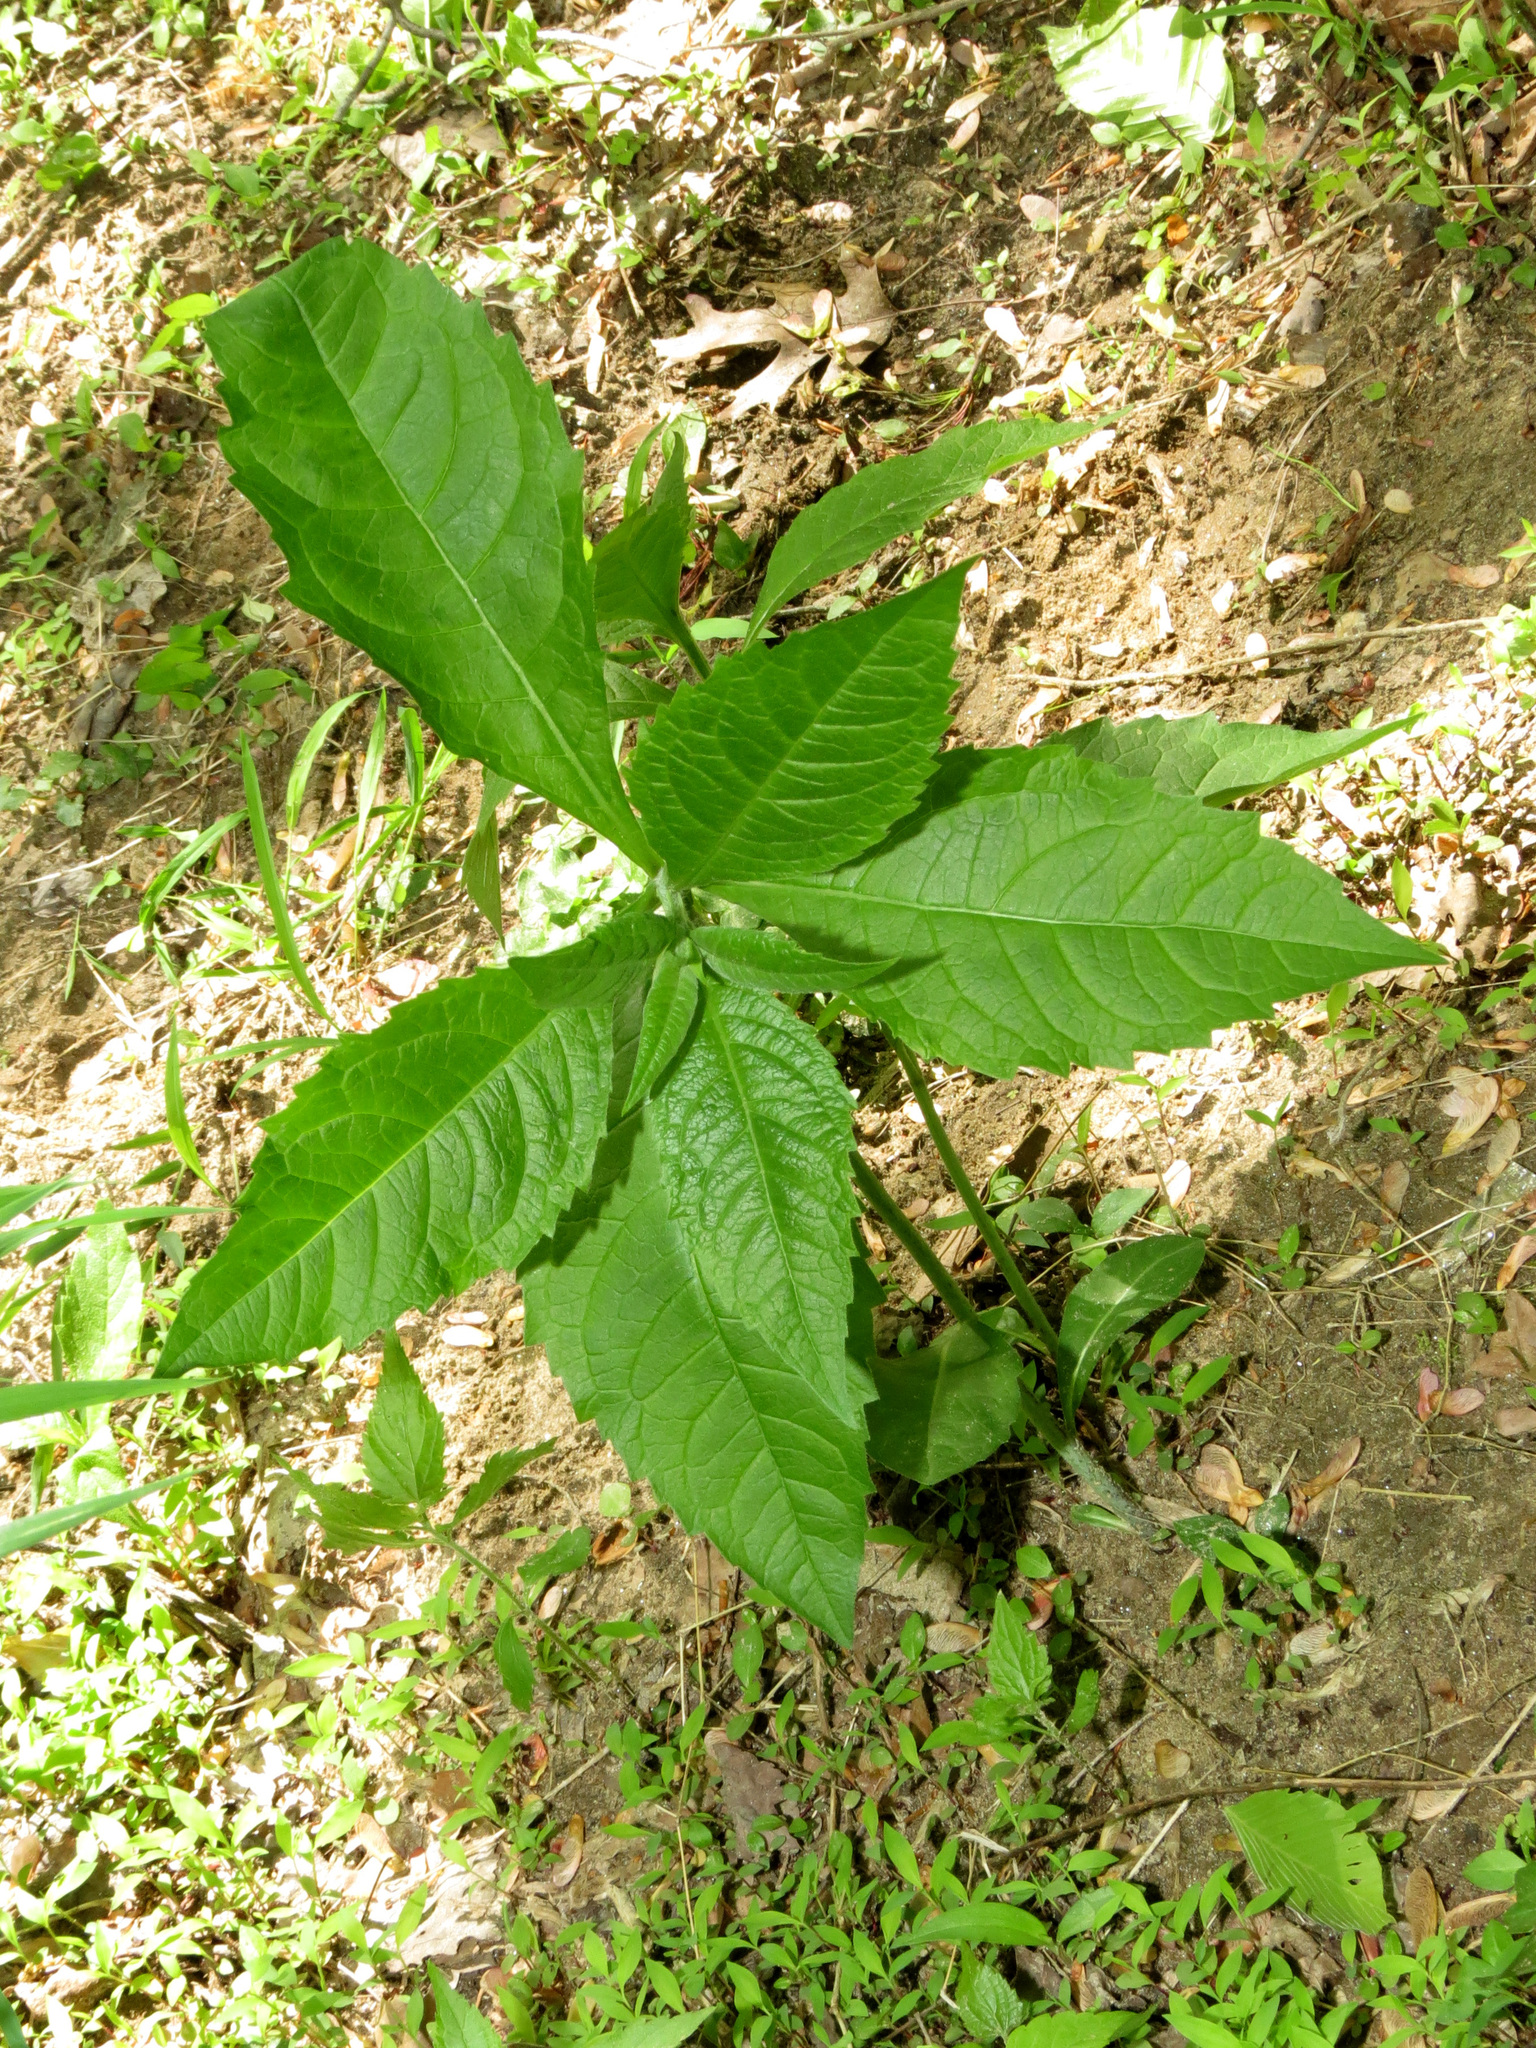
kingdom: Plantae
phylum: Tracheophyta
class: Magnoliopsida
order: Asterales
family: Asteraceae
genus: Verbesina
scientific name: Verbesina alternifolia
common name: Wingstem
